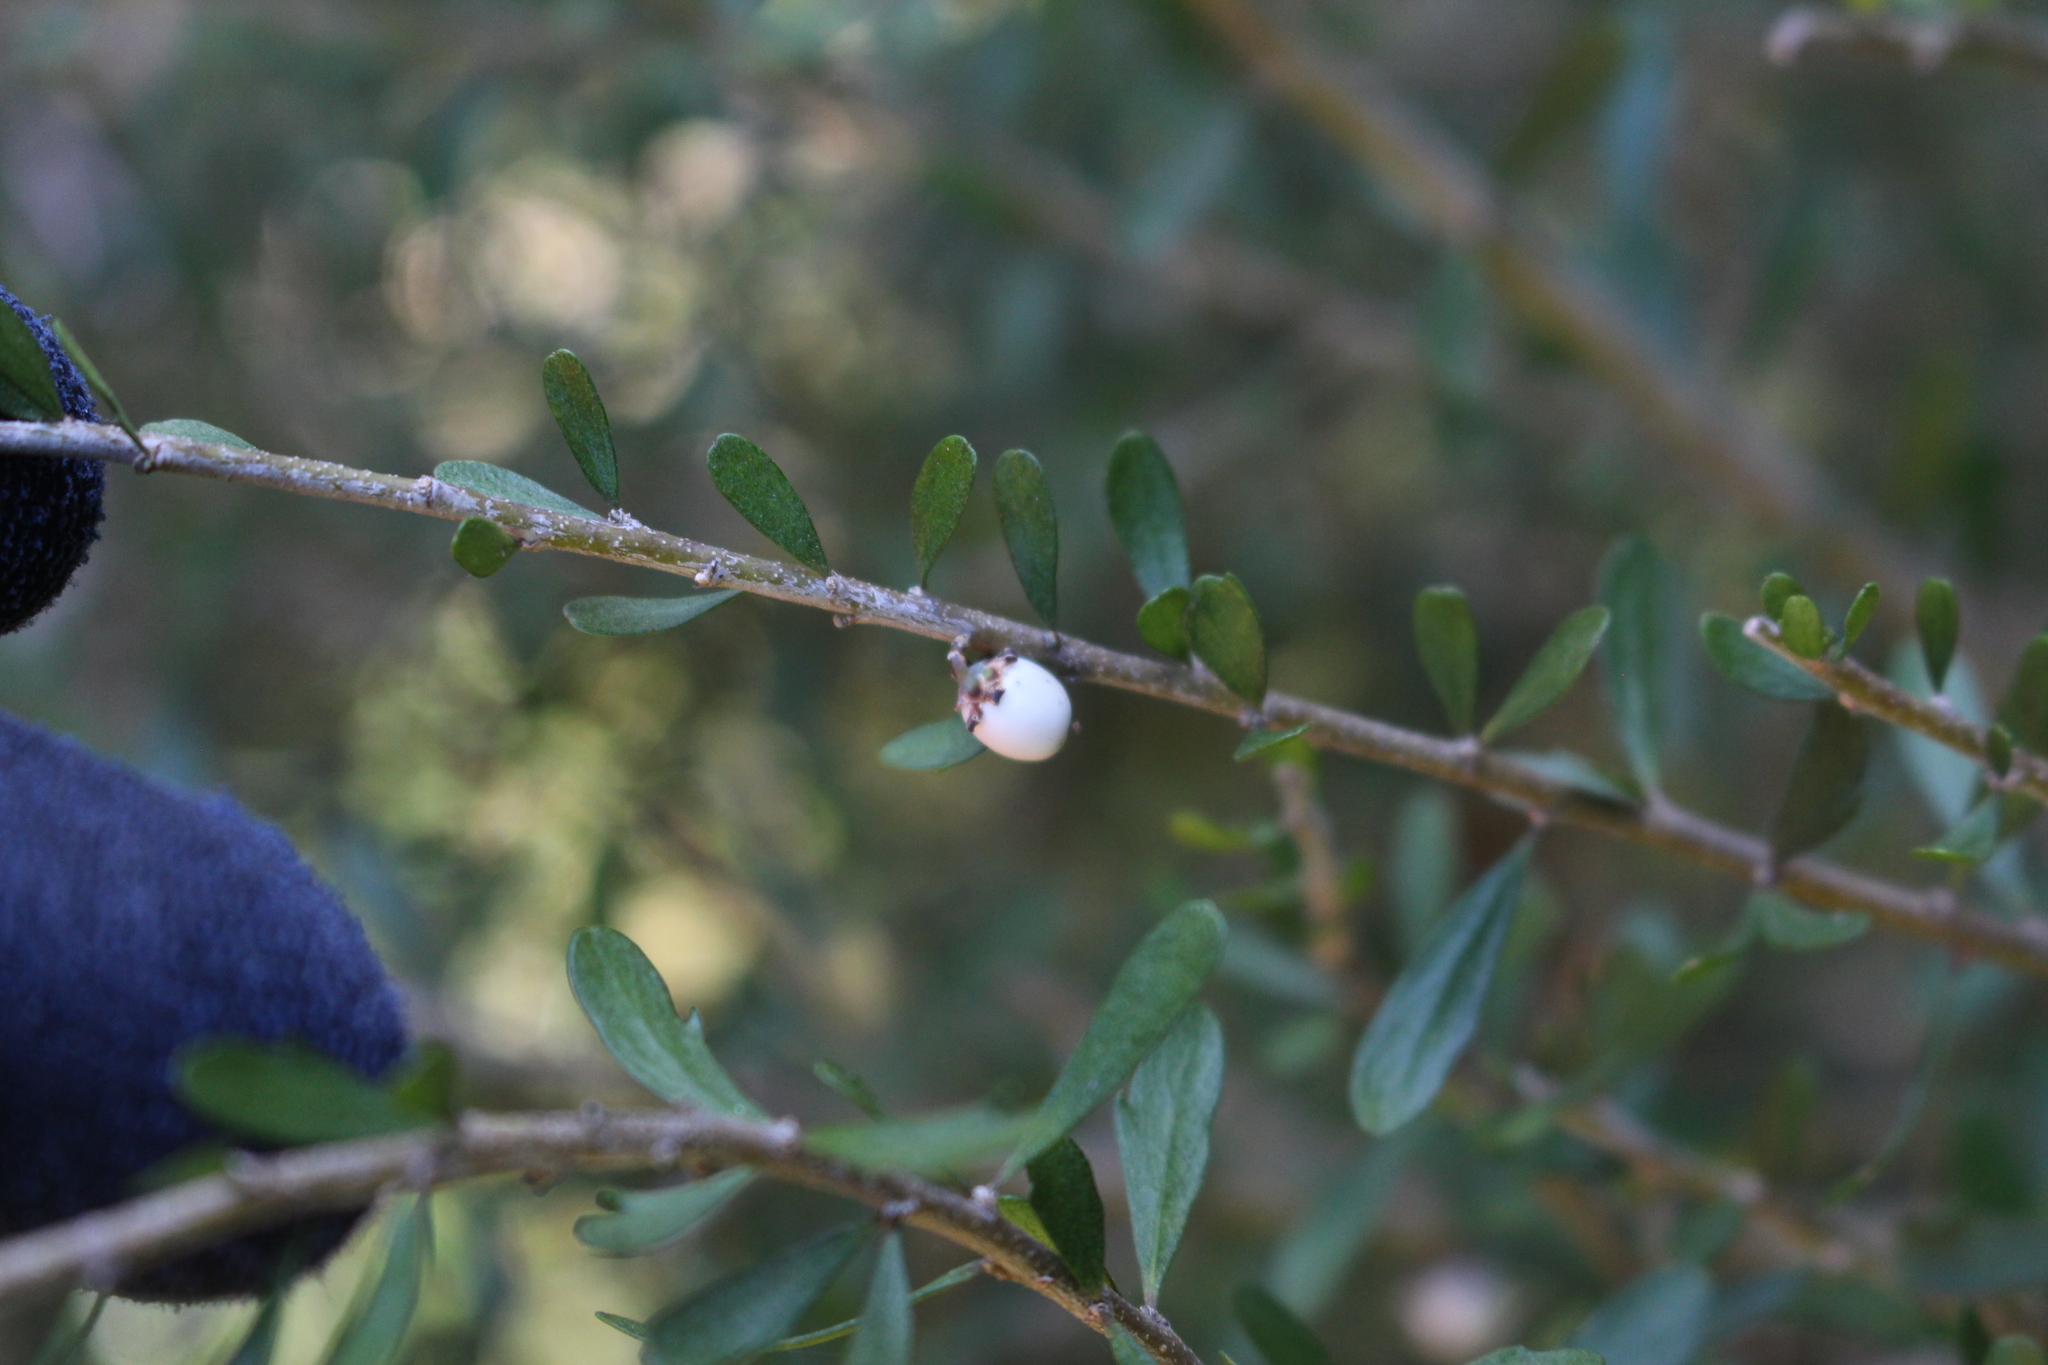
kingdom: Plantae
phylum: Tracheophyta
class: Magnoliopsida
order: Rosales
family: Rhamnaceae
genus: Discaria
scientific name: Discaria toumatou
